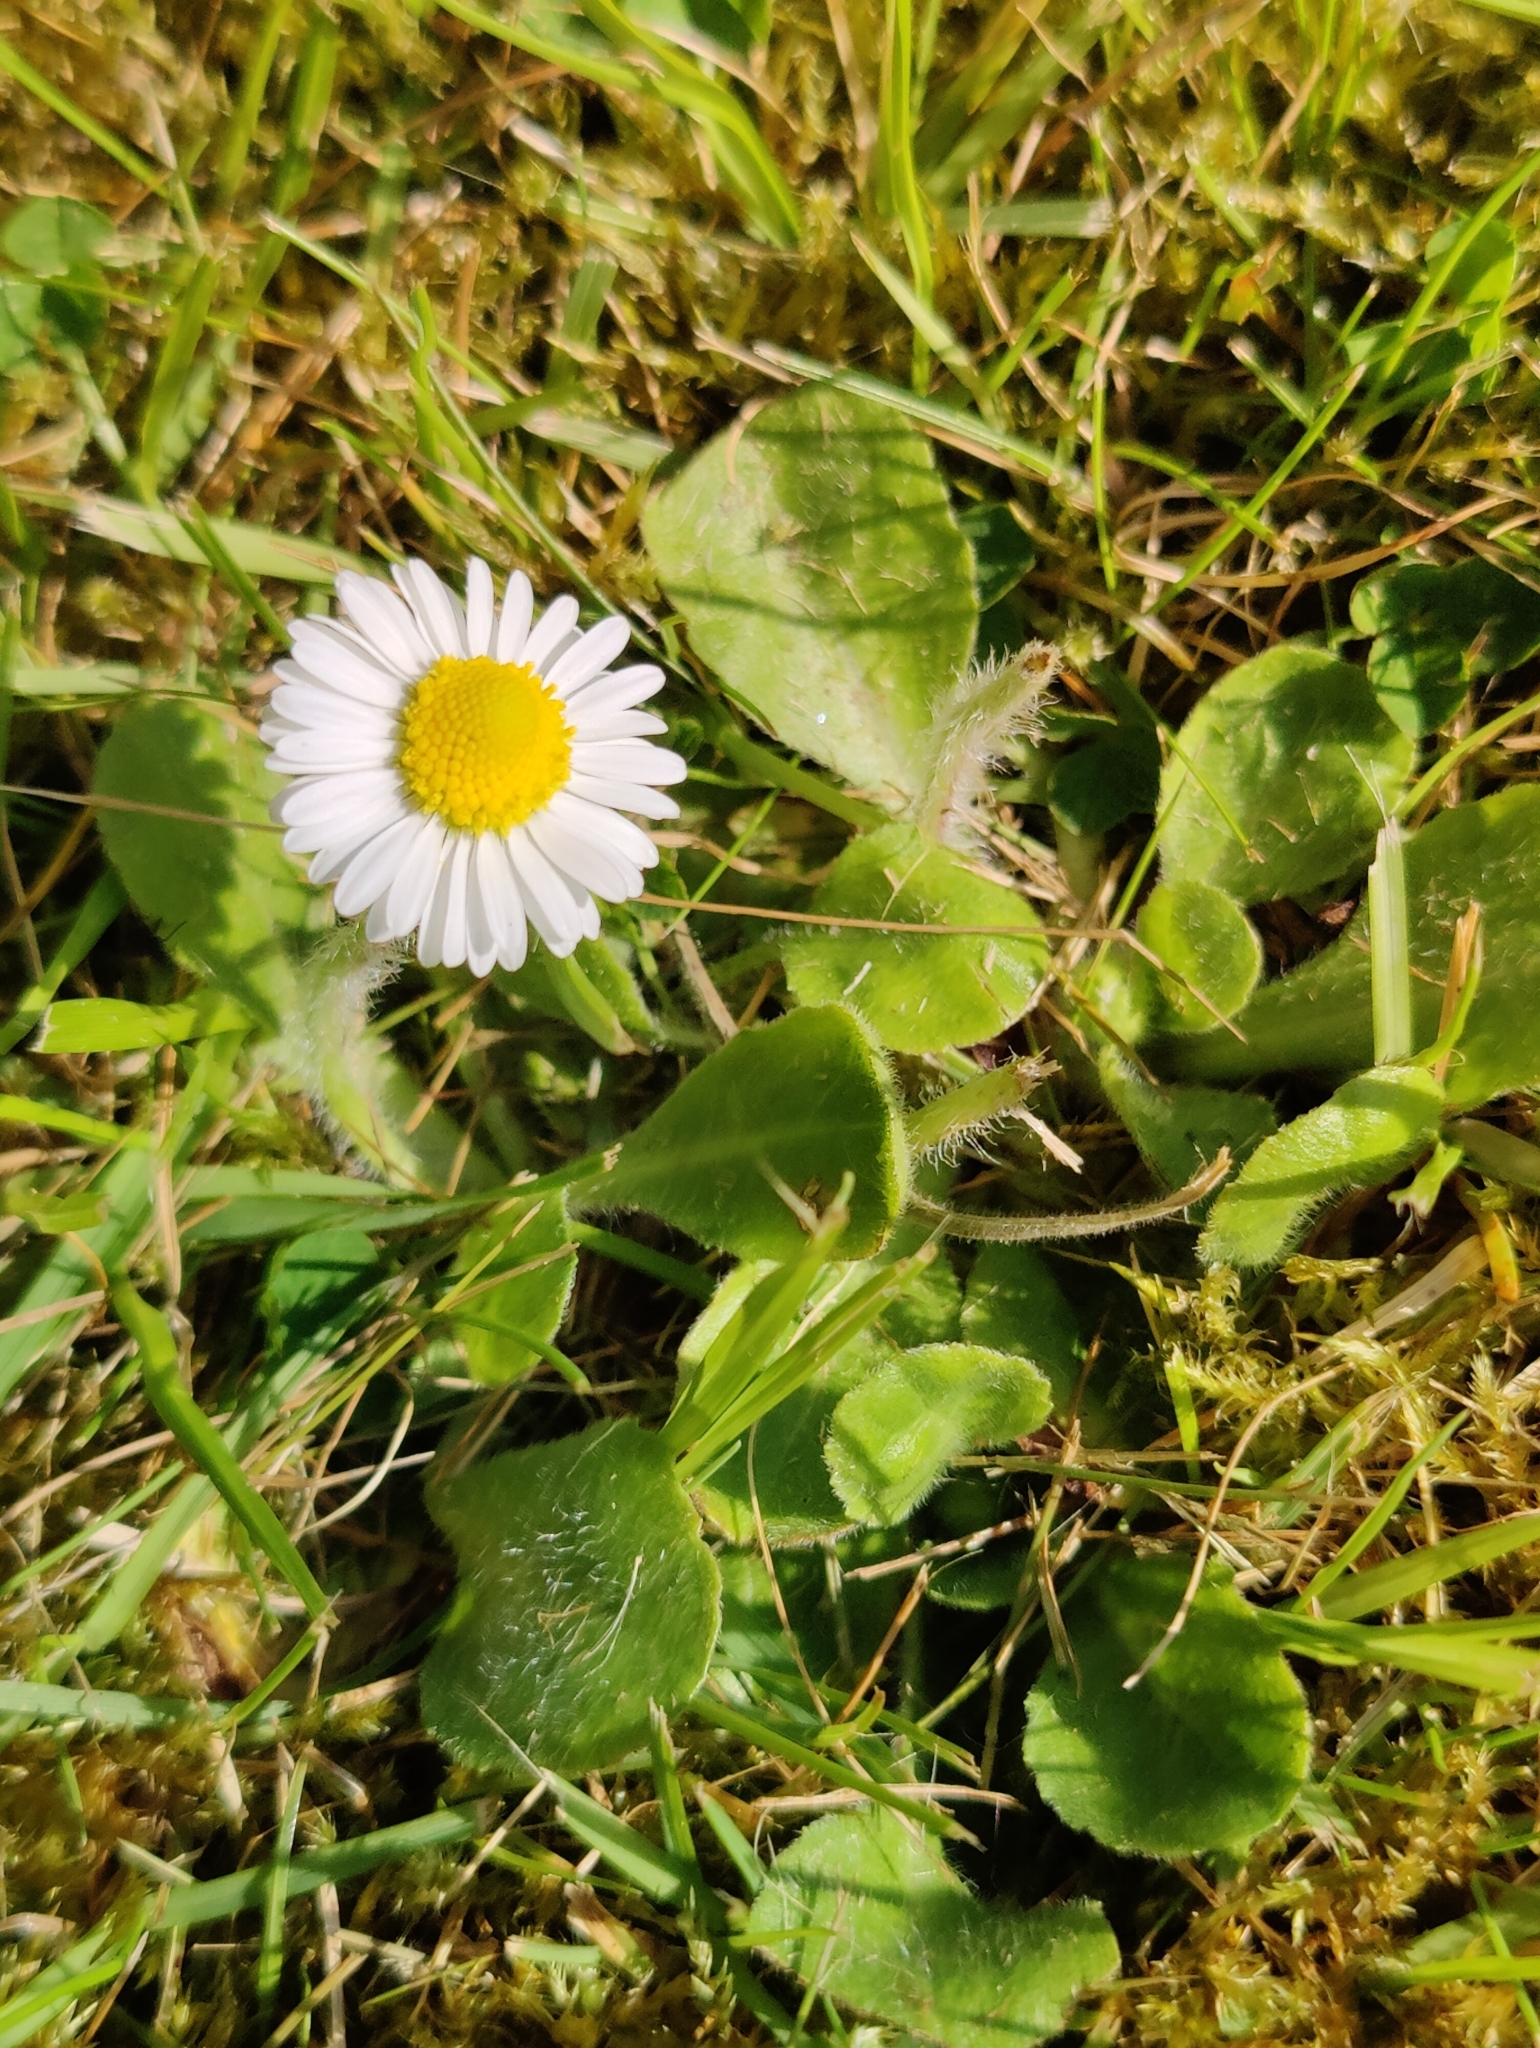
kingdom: Plantae
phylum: Tracheophyta
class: Magnoliopsida
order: Asterales
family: Asteraceae
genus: Bellis
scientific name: Bellis perennis
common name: Lawndaisy
